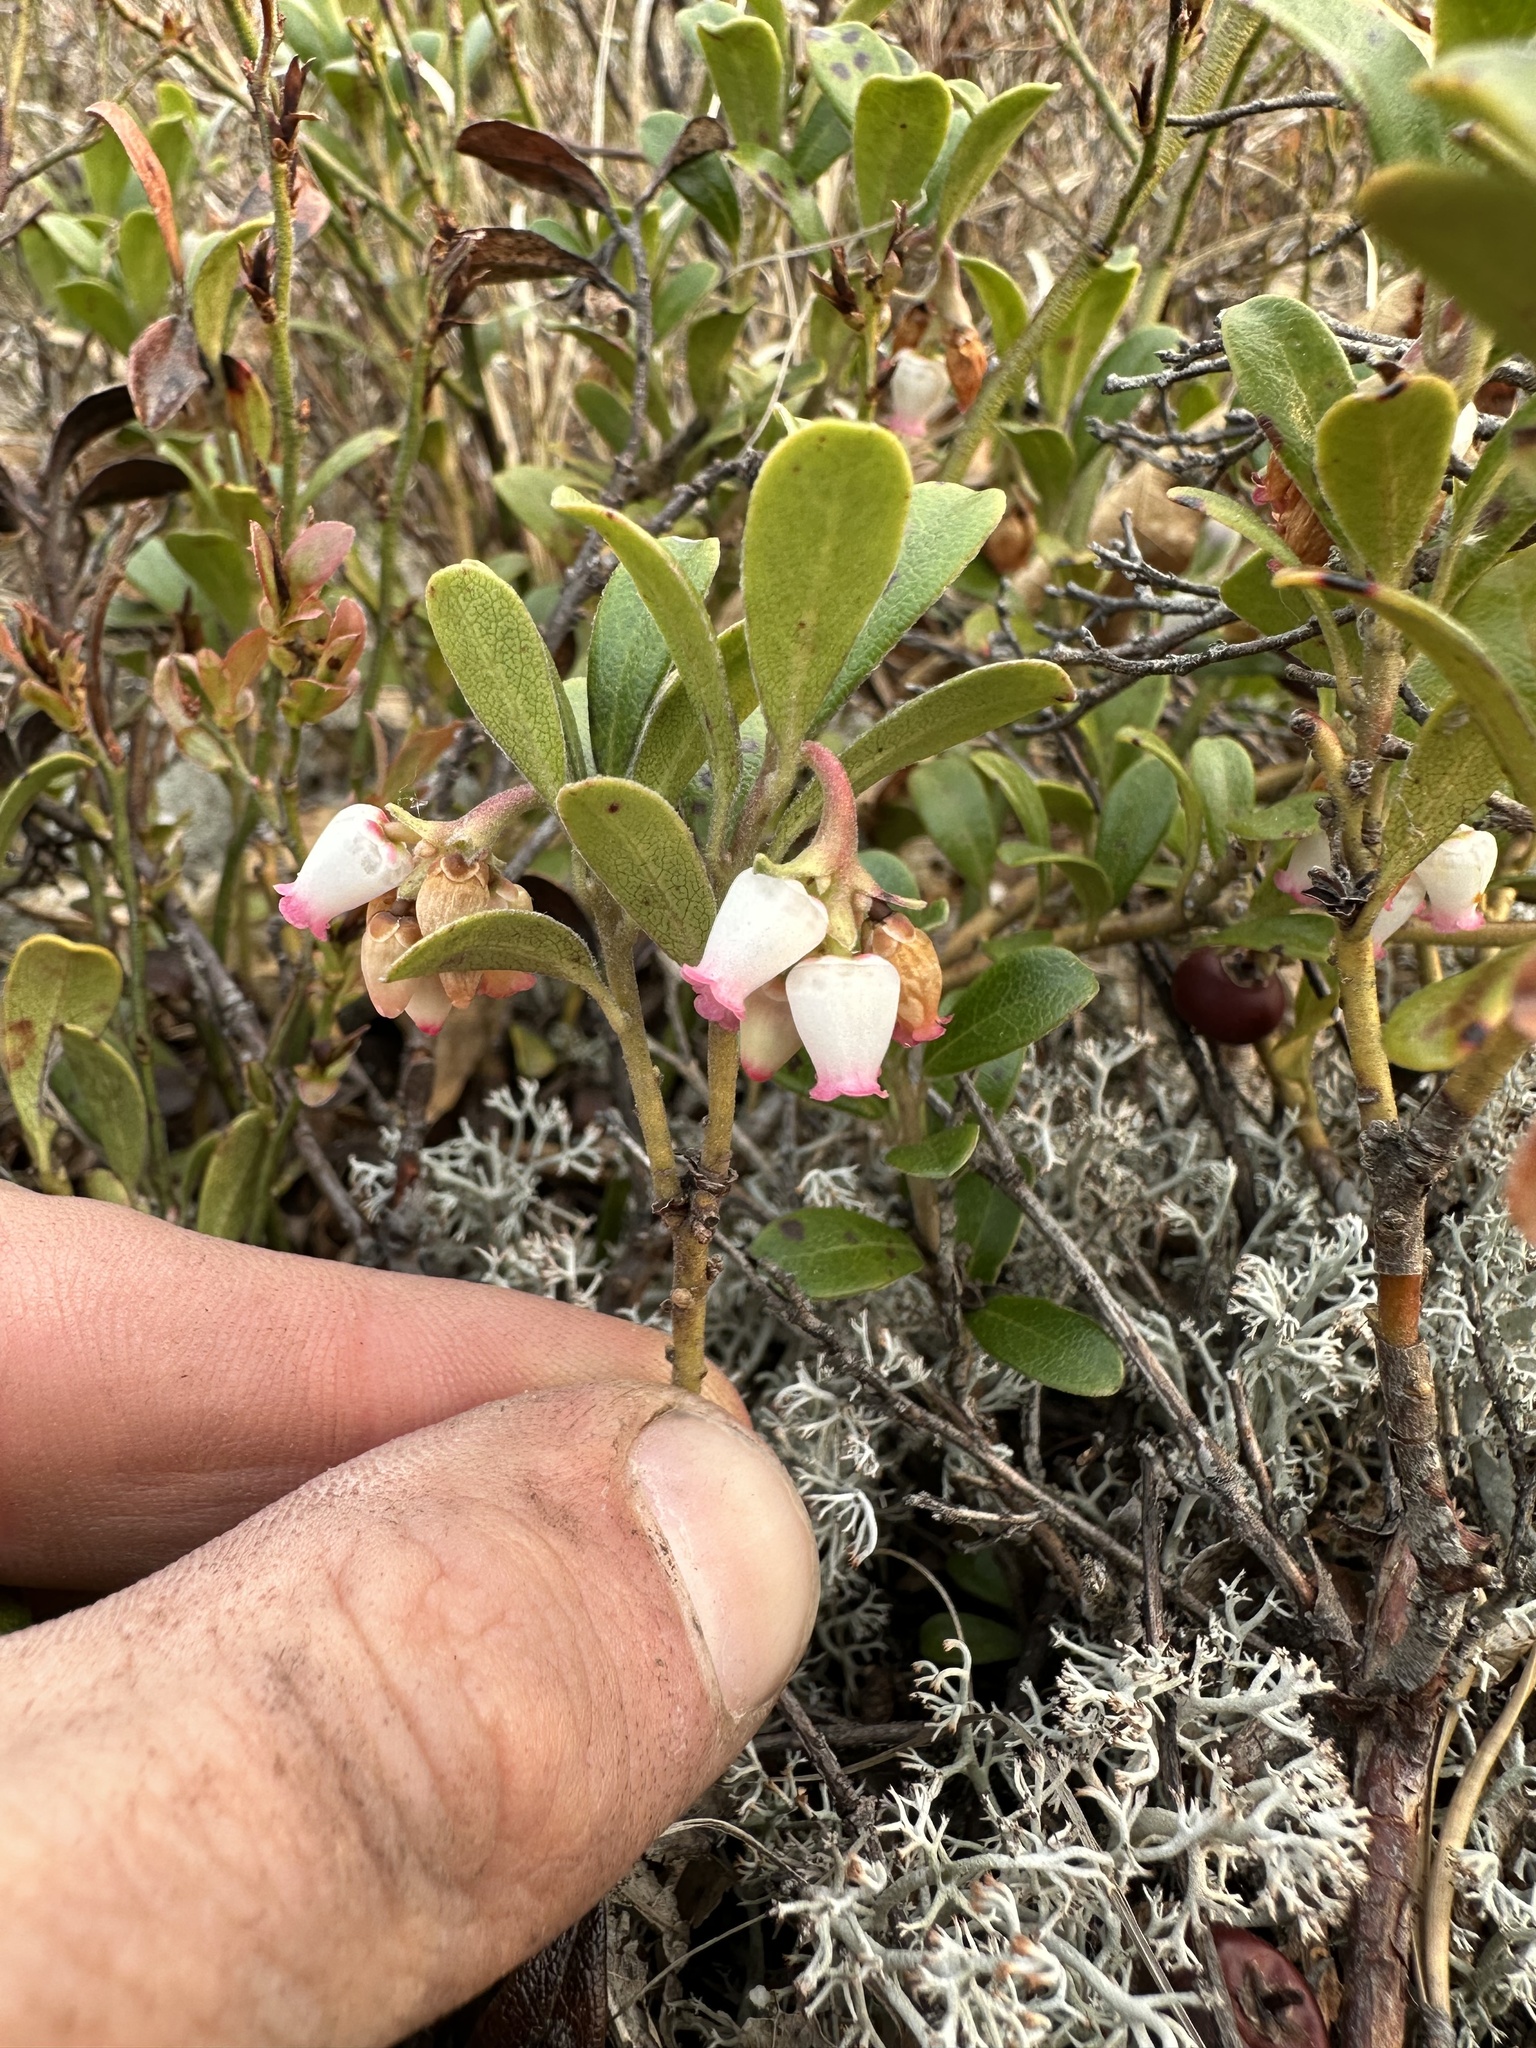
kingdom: Plantae
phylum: Tracheophyta
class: Magnoliopsida
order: Ericales
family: Ericaceae
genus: Arctostaphylos
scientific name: Arctostaphylos uva-ursi
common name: Bearberry
